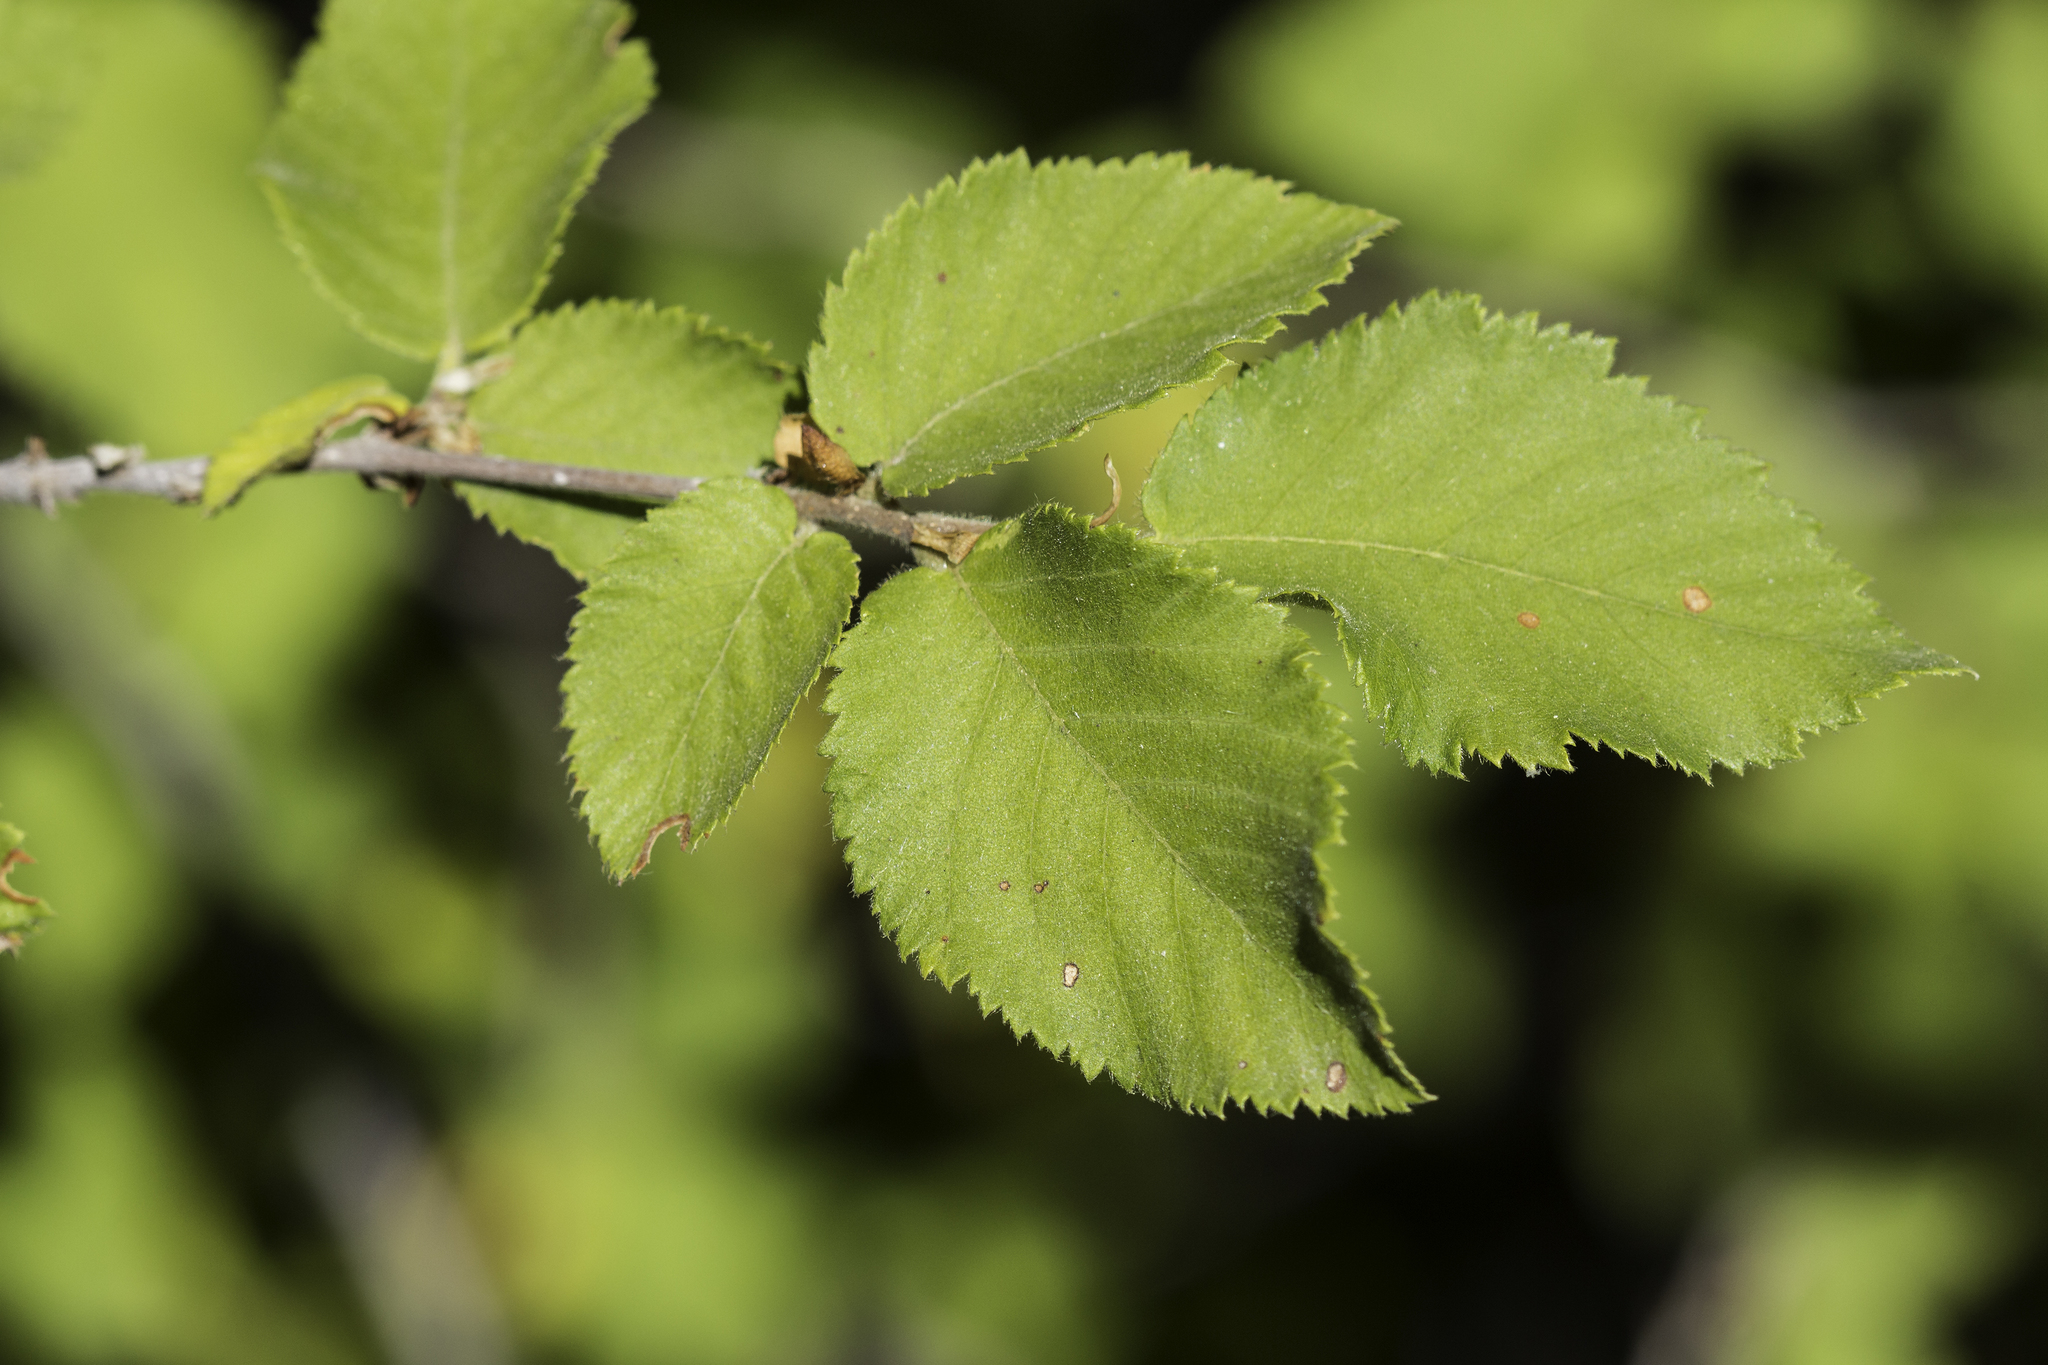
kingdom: Plantae
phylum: Tracheophyta
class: Magnoliopsida
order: Fagales
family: Betulaceae
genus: Ostrya
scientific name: Ostrya knowltonii
